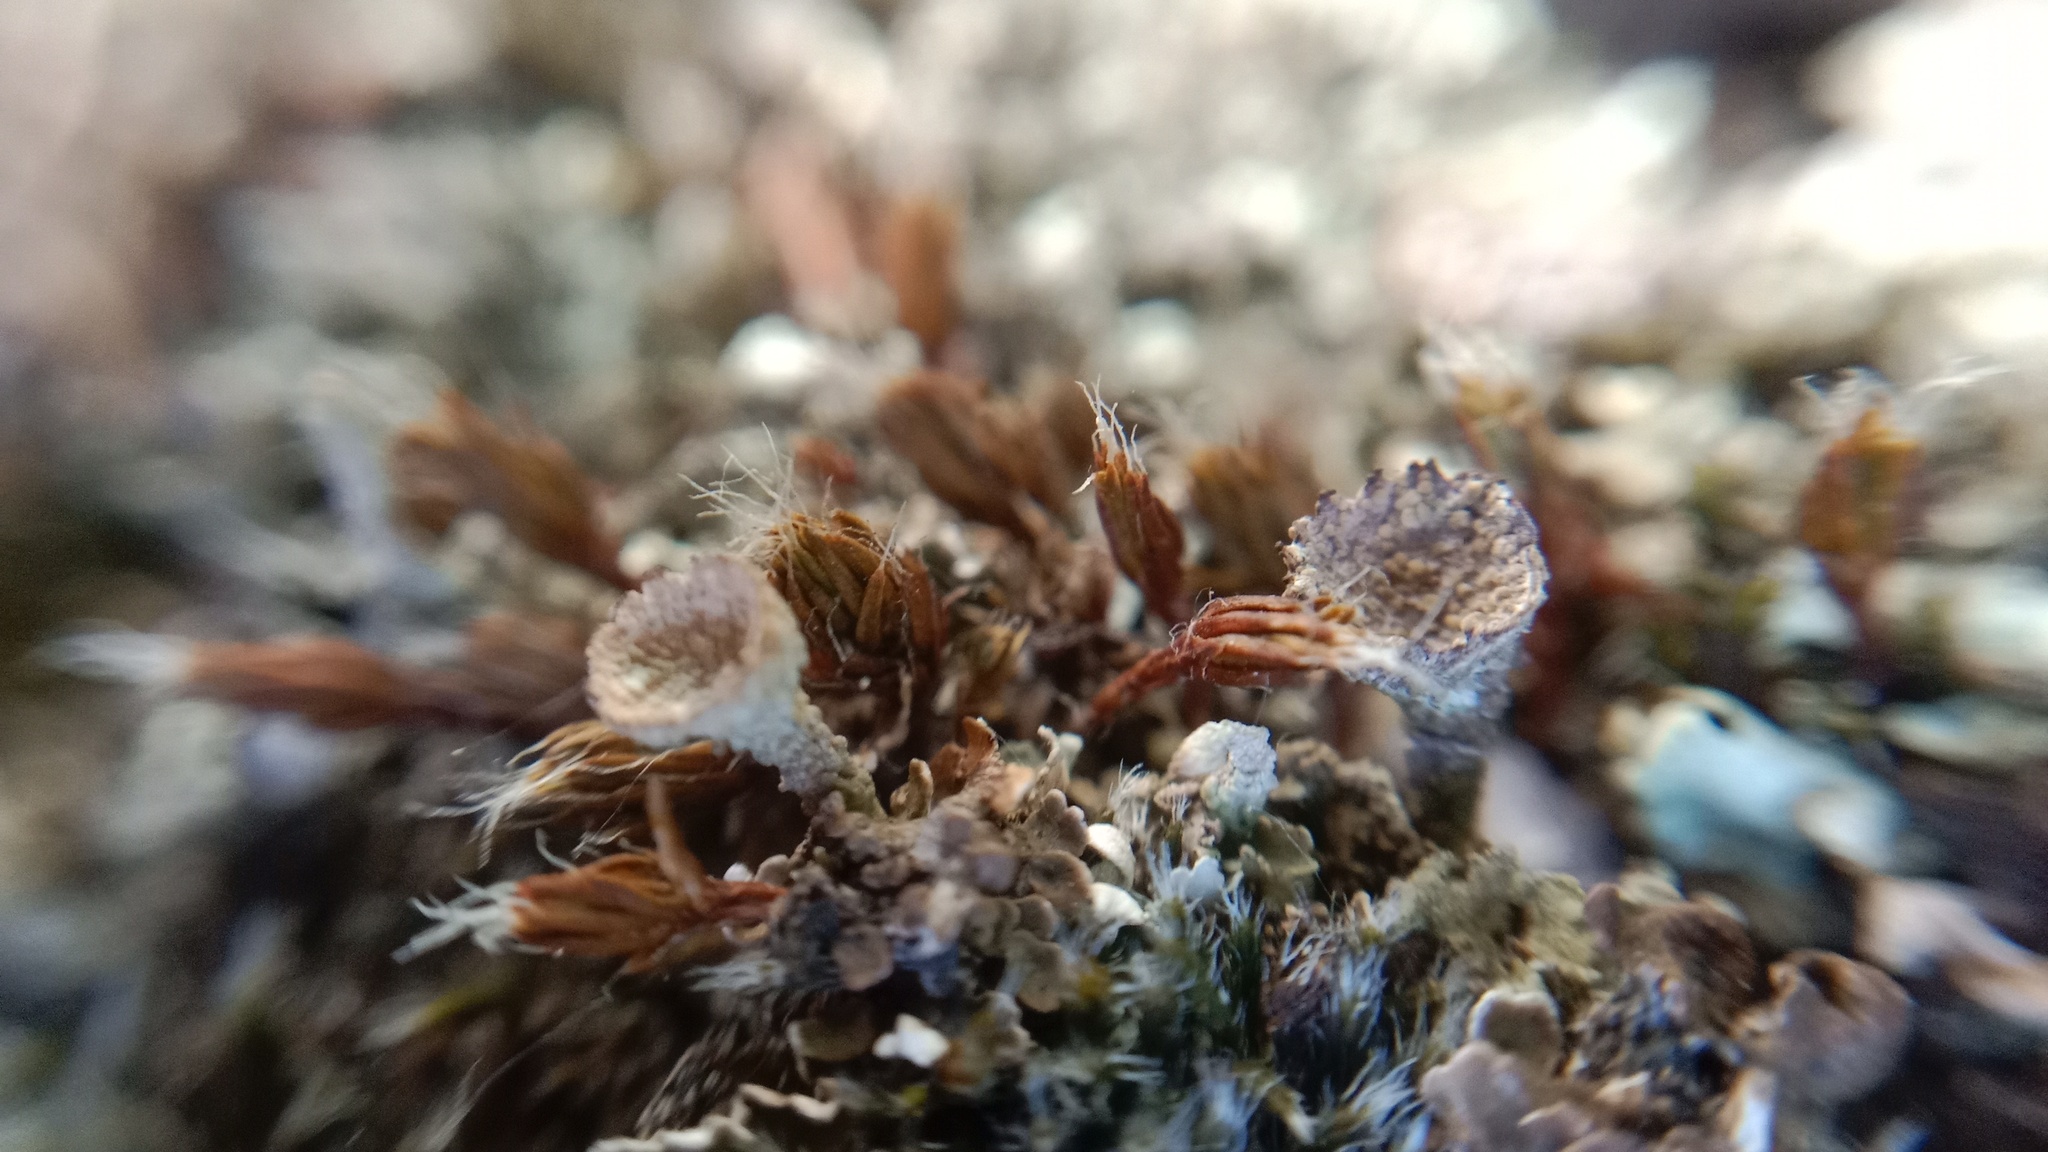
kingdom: Fungi
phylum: Ascomycota
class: Lecanoromycetes
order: Lecanorales
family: Cladoniaceae
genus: Cladonia
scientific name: Cladonia pyxidata
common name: Pebbled pixie cup
